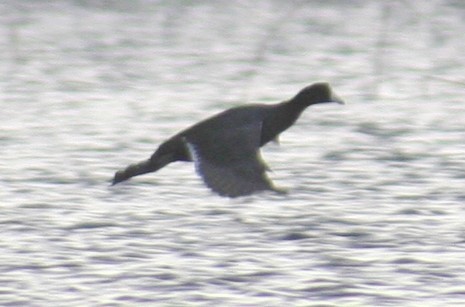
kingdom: Animalia
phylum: Chordata
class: Aves
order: Gruiformes
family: Rallidae
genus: Fulica
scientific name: Fulica americana
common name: American coot
